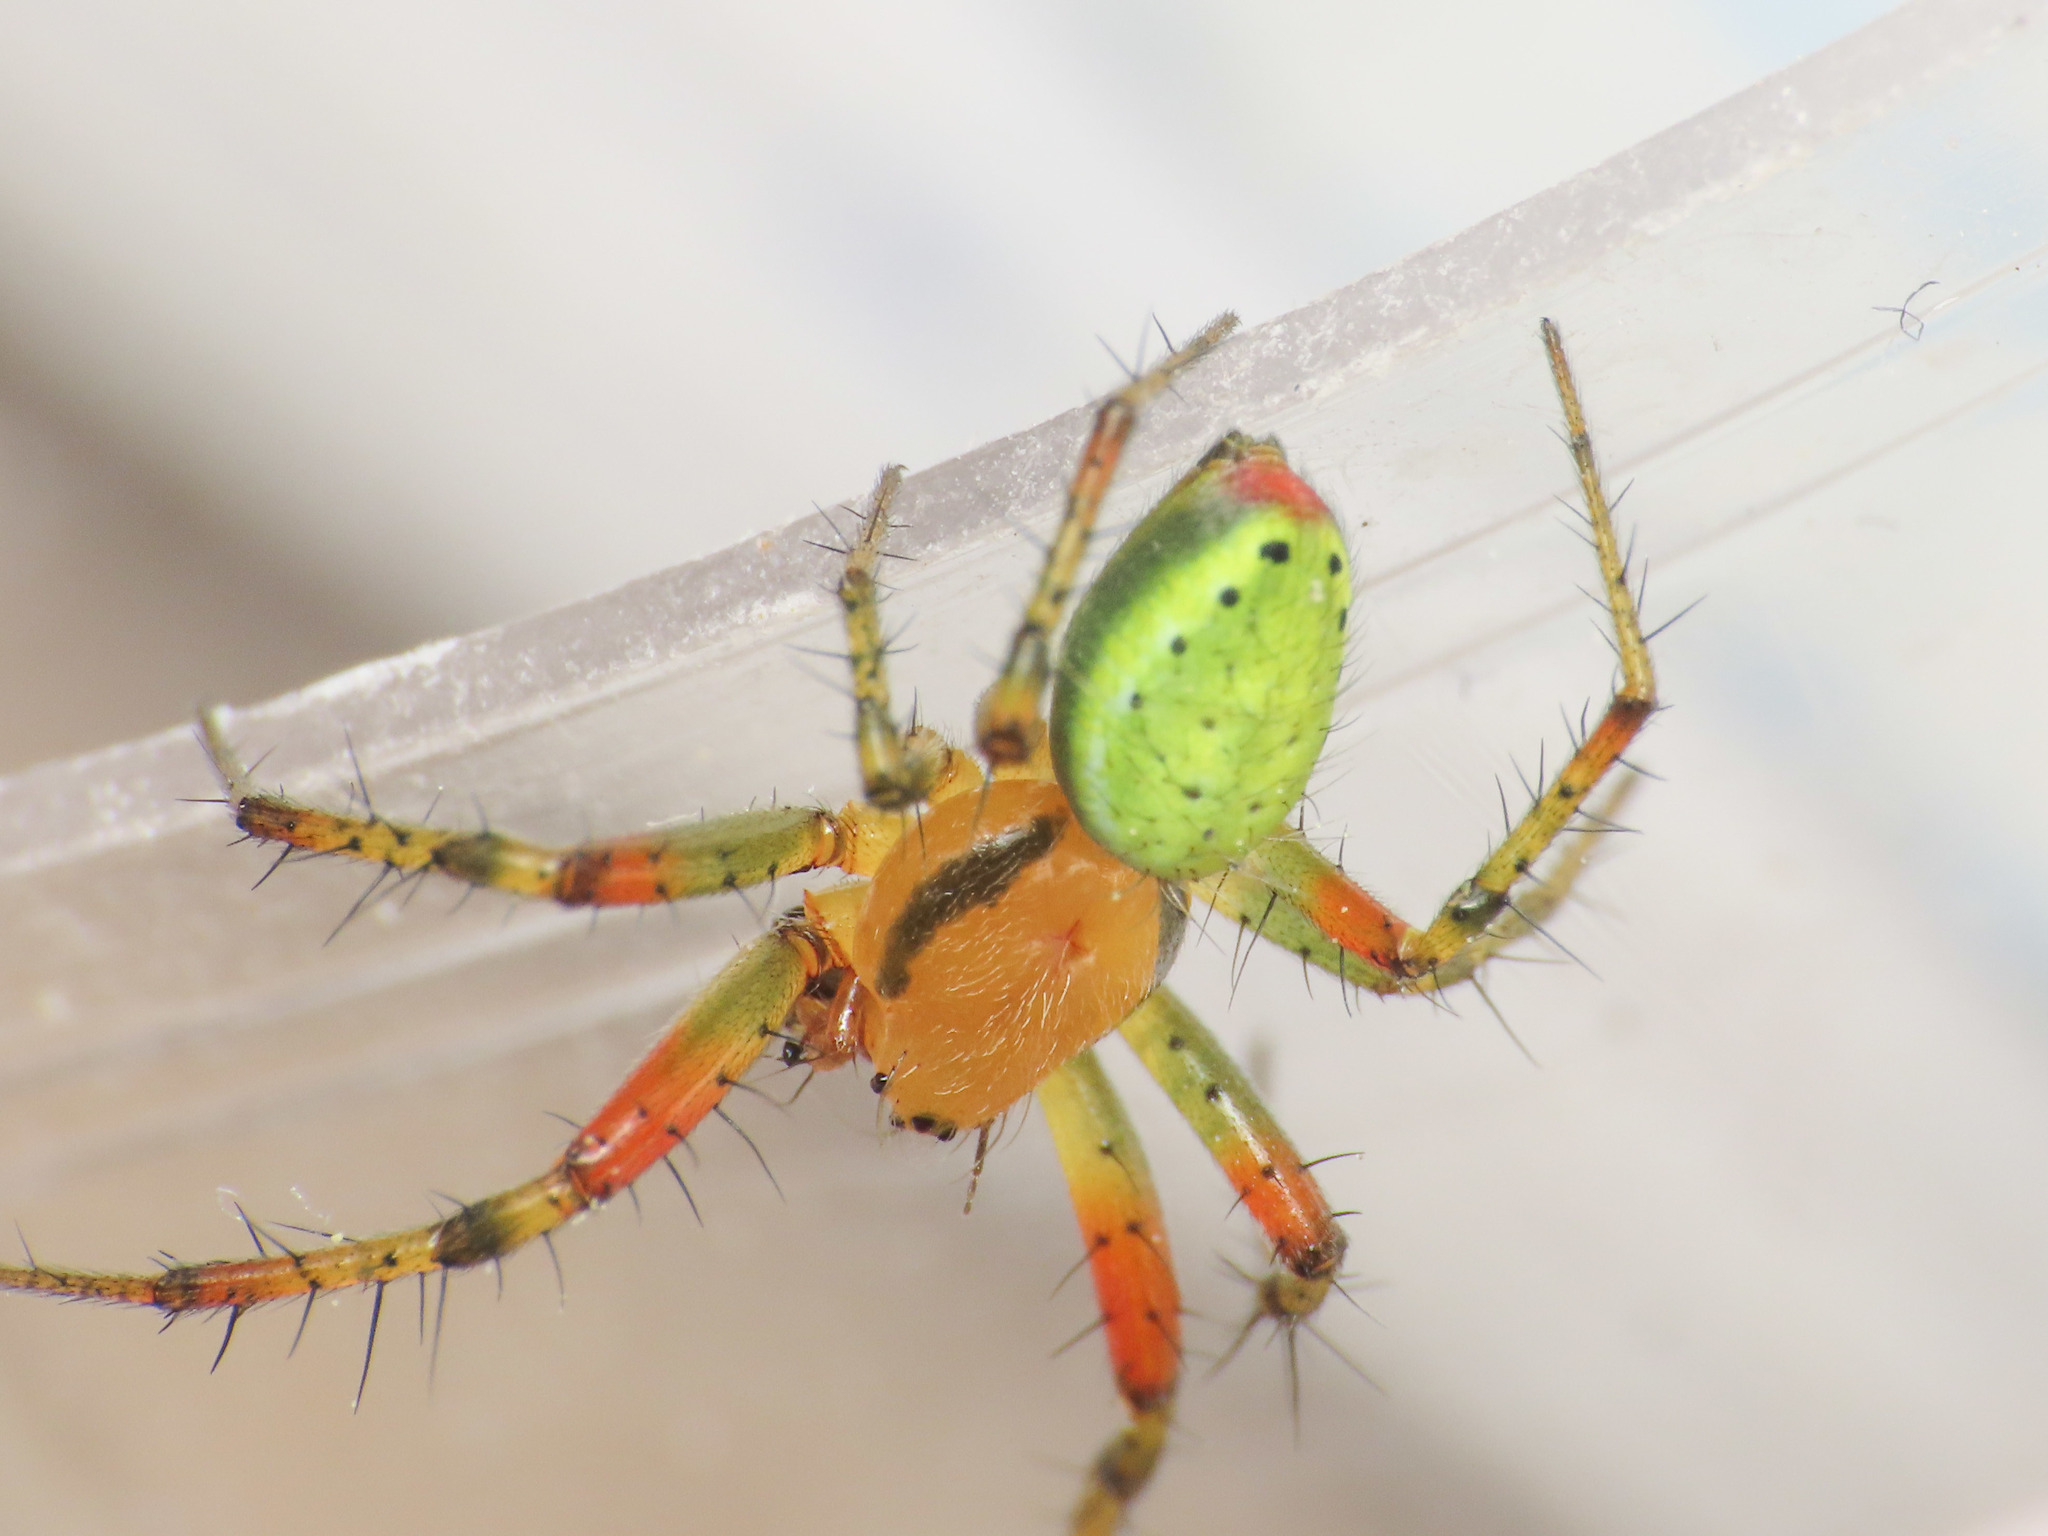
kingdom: Animalia
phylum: Arthropoda
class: Arachnida
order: Araneae
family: Araneidae
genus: Araniella
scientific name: Araniella cucurbitina
